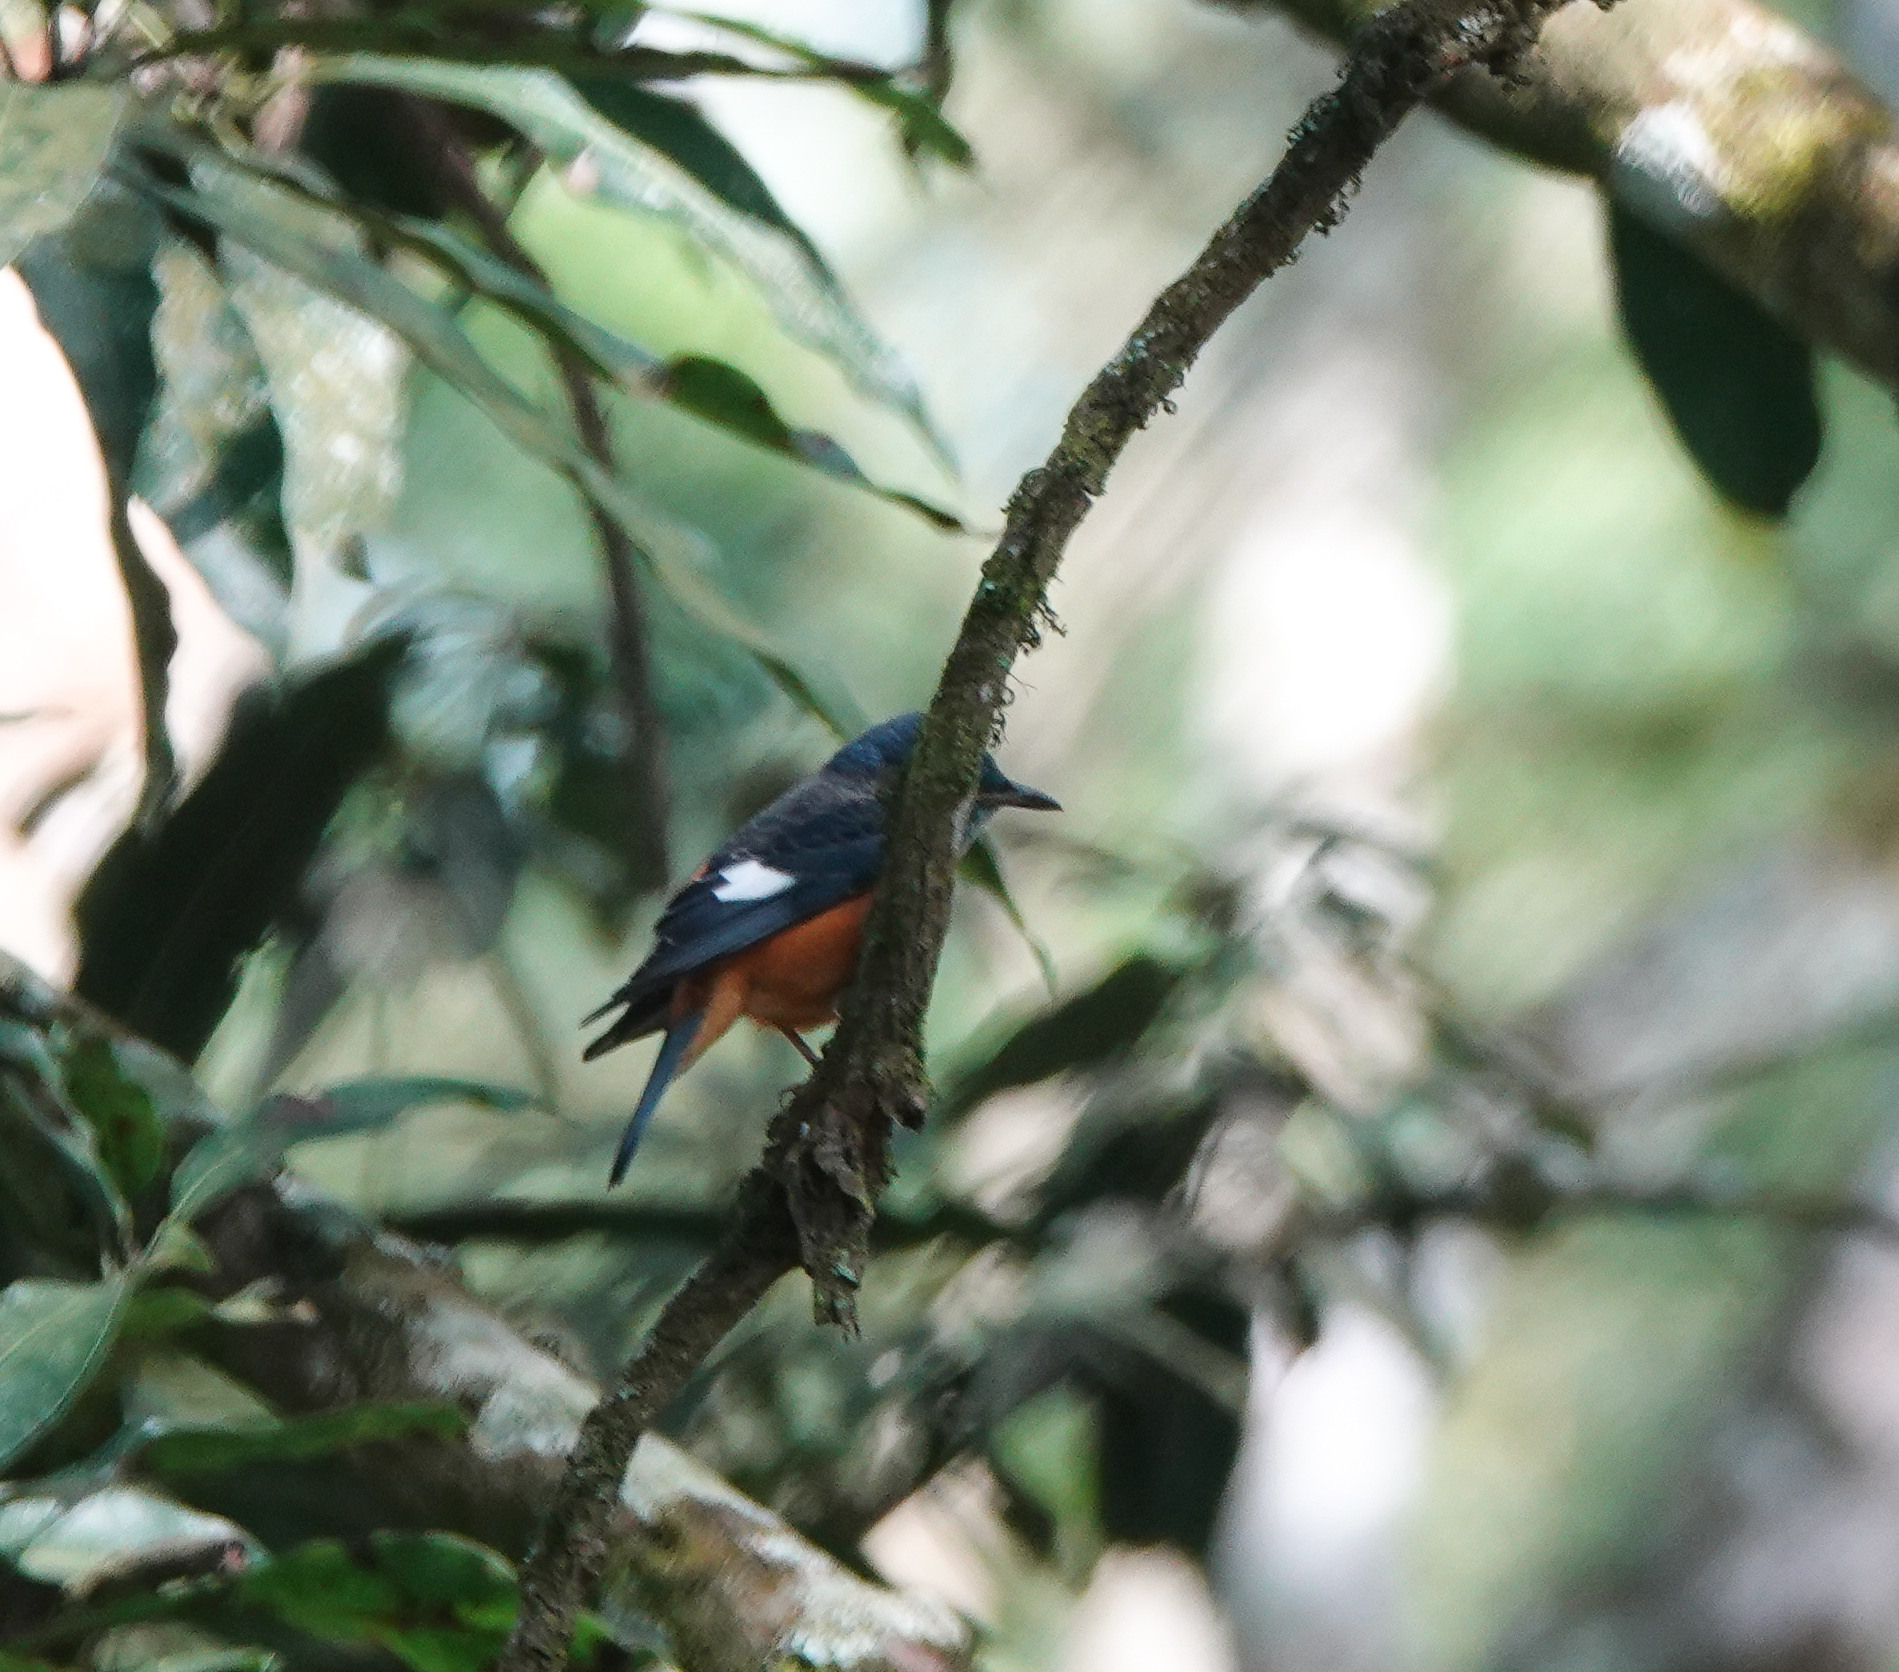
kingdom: Animalia
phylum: Chordata
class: Aves
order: Passeriformes
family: Muscicapidae
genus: Monticola
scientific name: Monticola cinclorhynchus
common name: Blue-capped rock thrush
